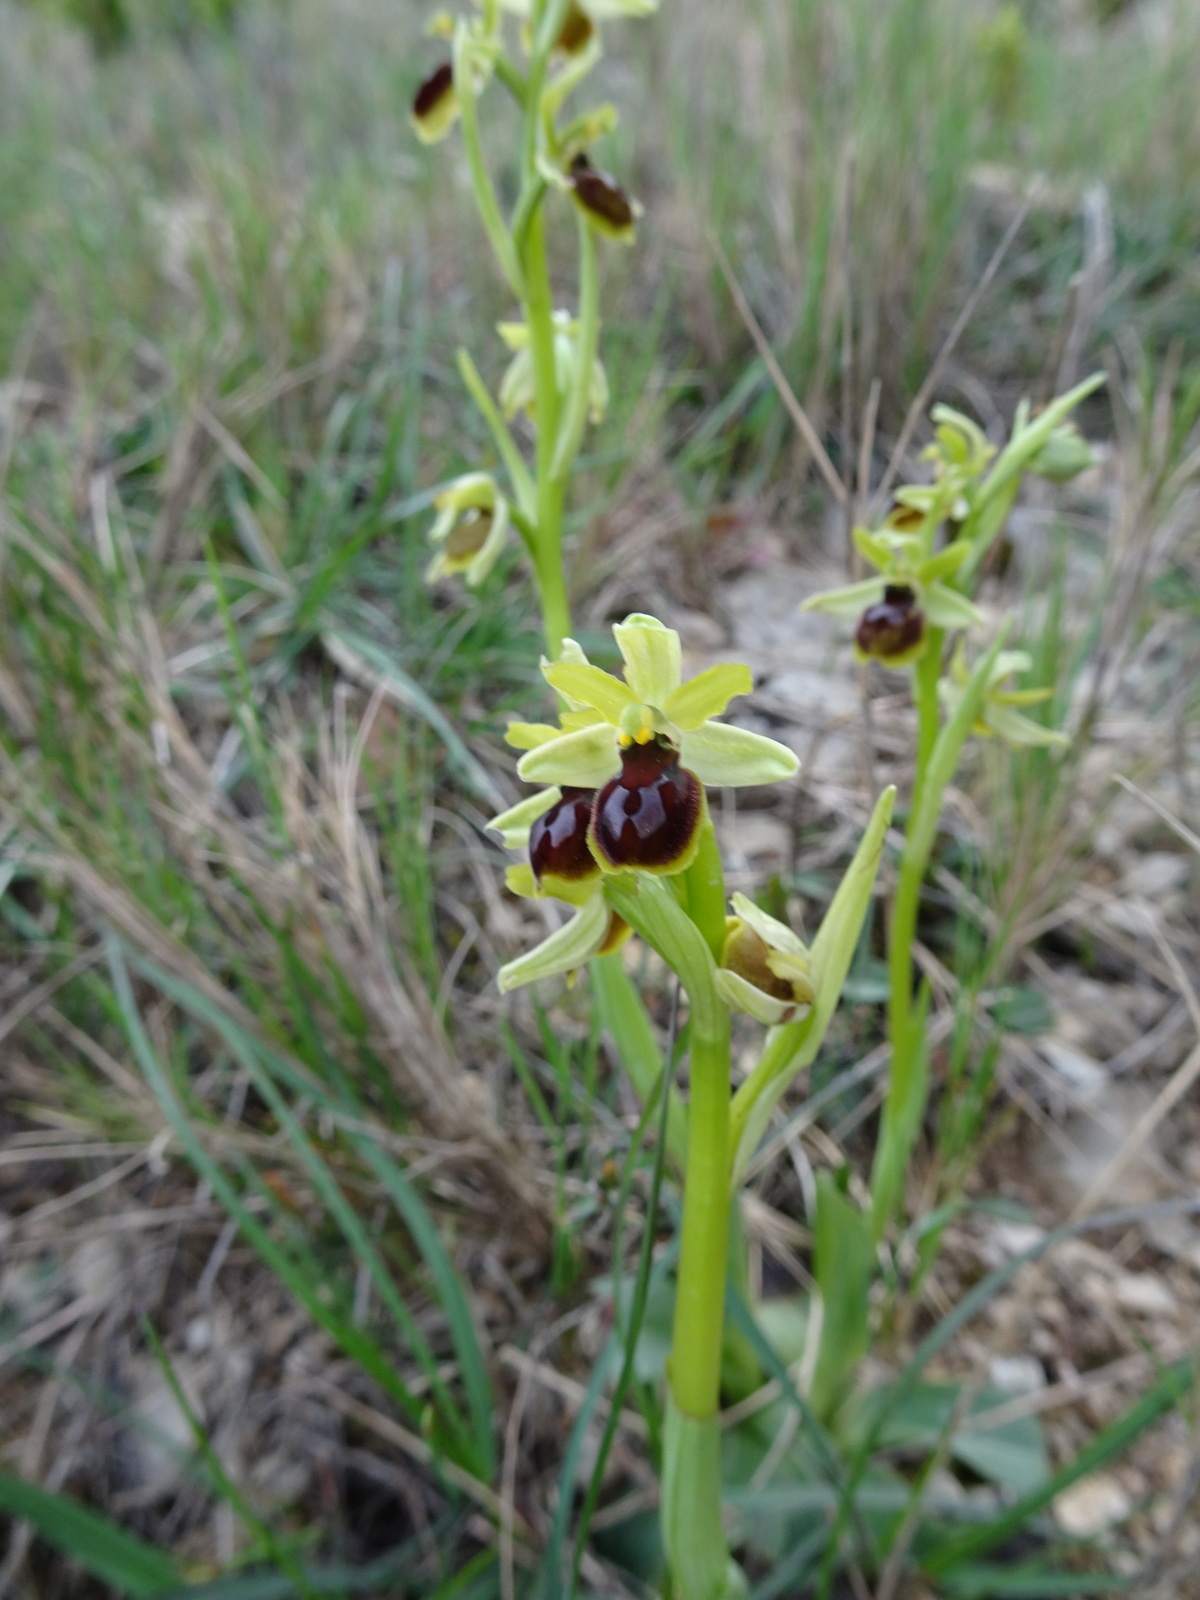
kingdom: Plantae
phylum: Tracheophyta
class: Liliopsida
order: Asparagales
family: Orchidaceae
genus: Ophrys
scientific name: Ophrys araneola
